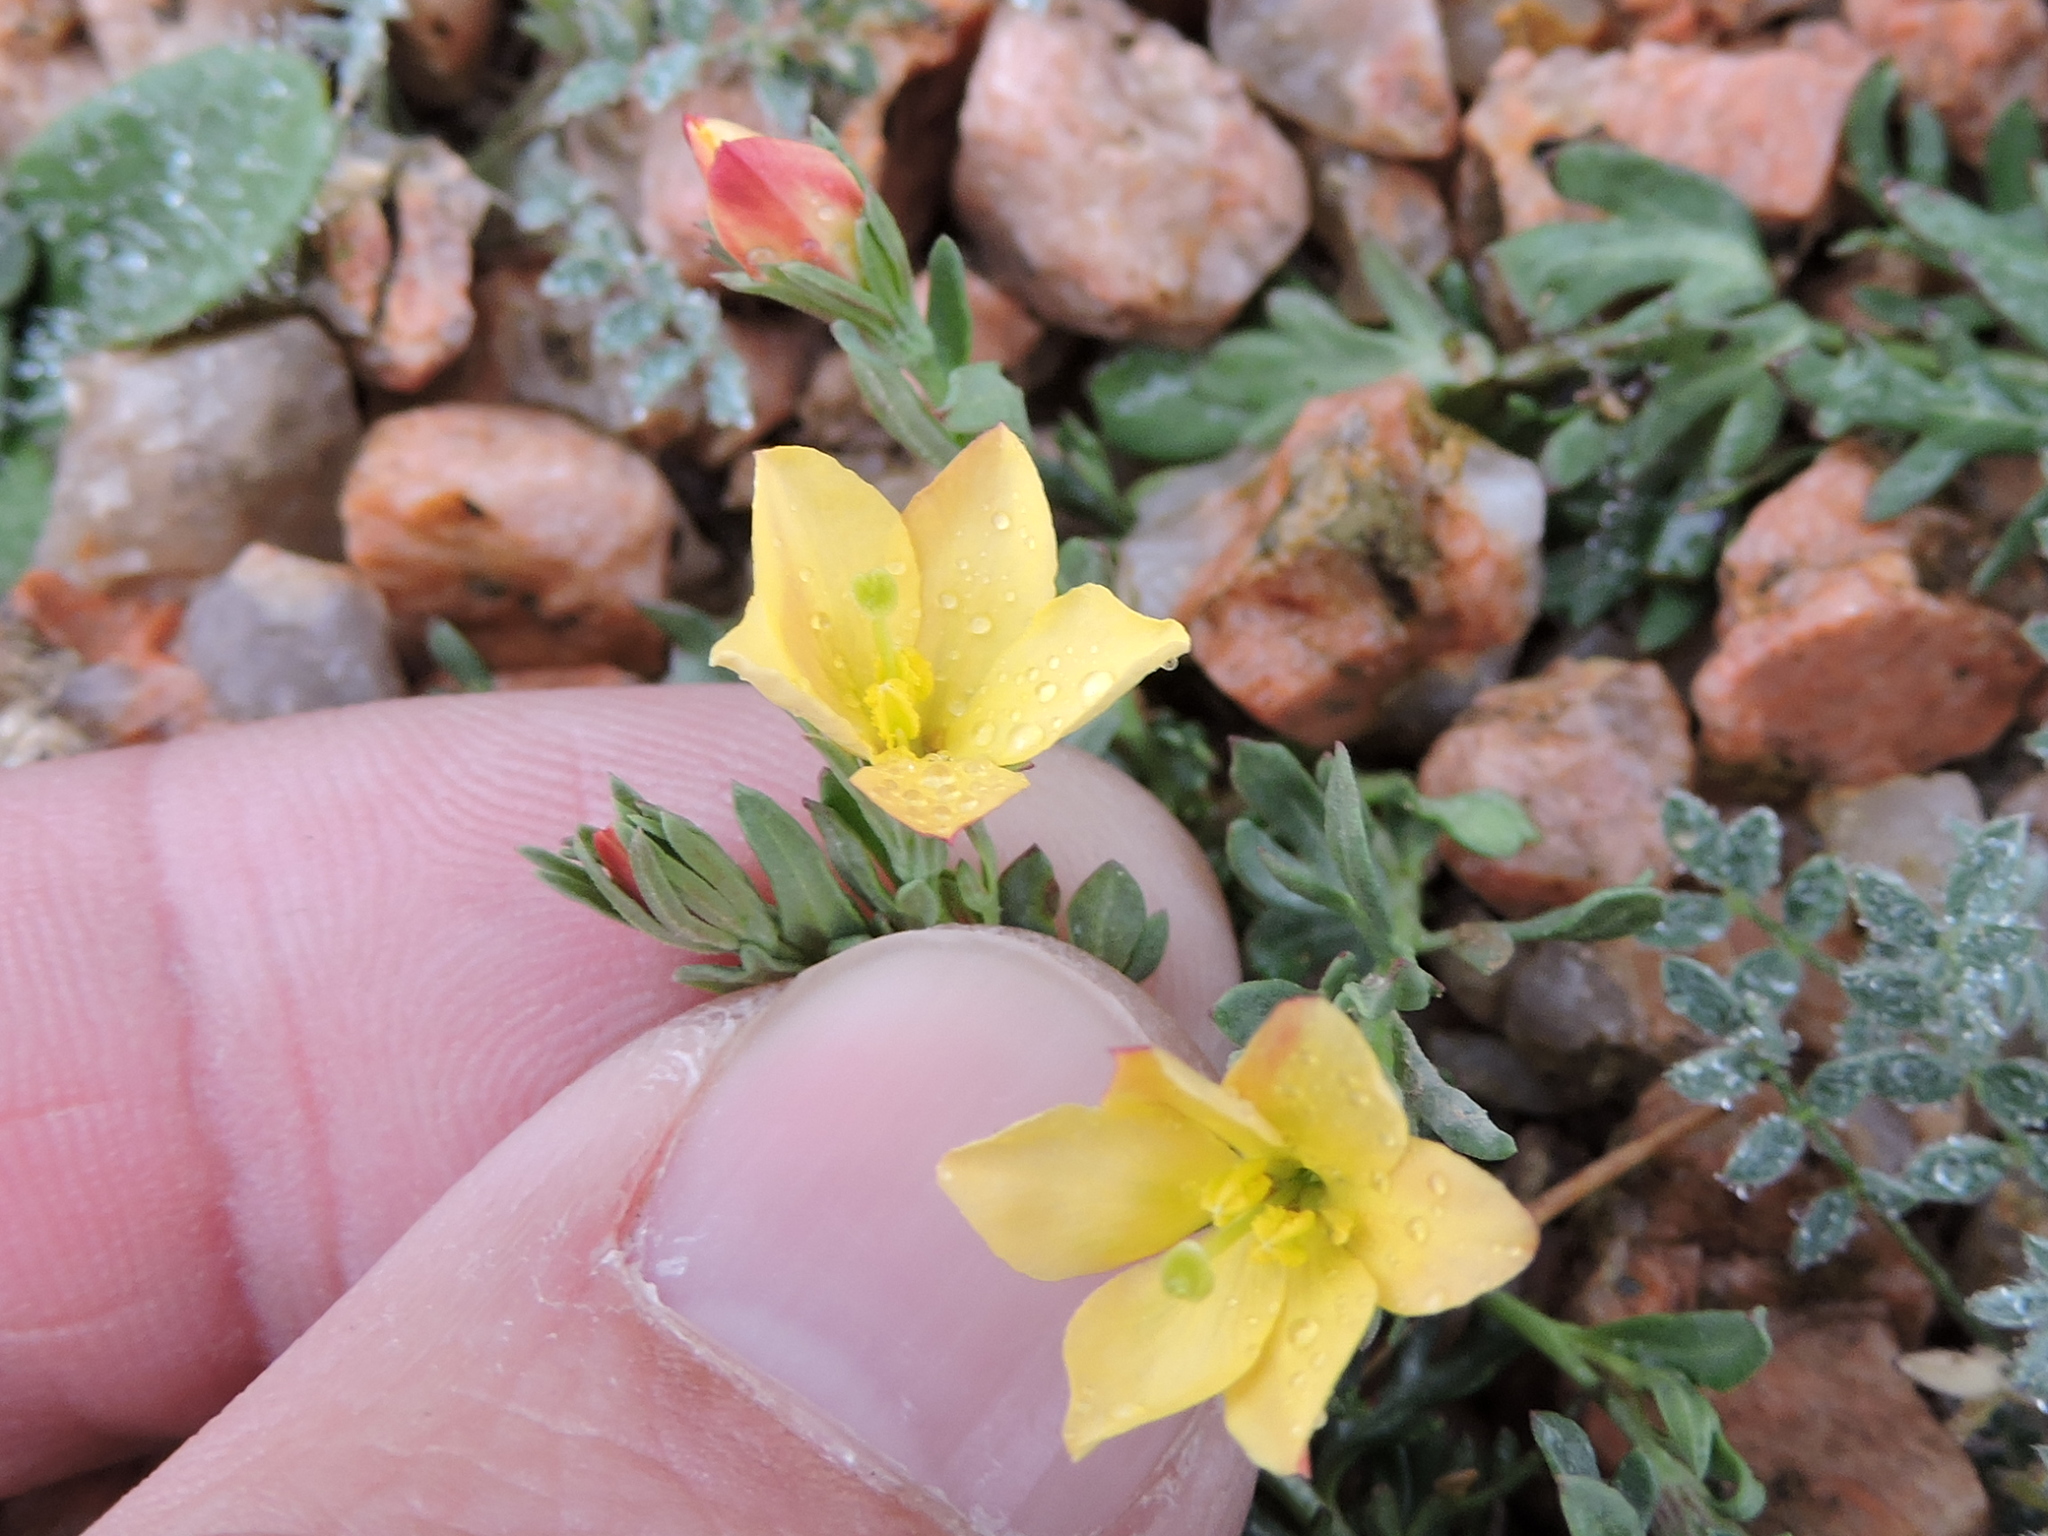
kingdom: Plantae
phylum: Tracheophyta
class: Magnoliopsida
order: Lamiales
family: Oleaceae
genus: Menodora
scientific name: Menodora heterophylla
